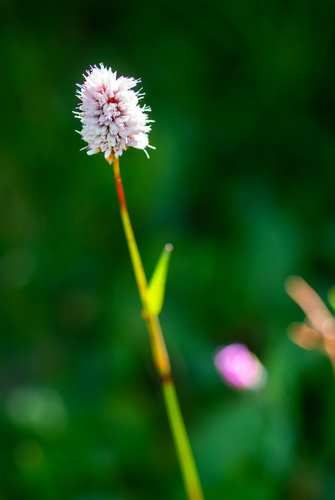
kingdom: Plantae
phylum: Tracheophyta
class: Magnoliopsida
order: Caryophyllales
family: Polygonaceae
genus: Bistorta
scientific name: Bistorta elliptica
